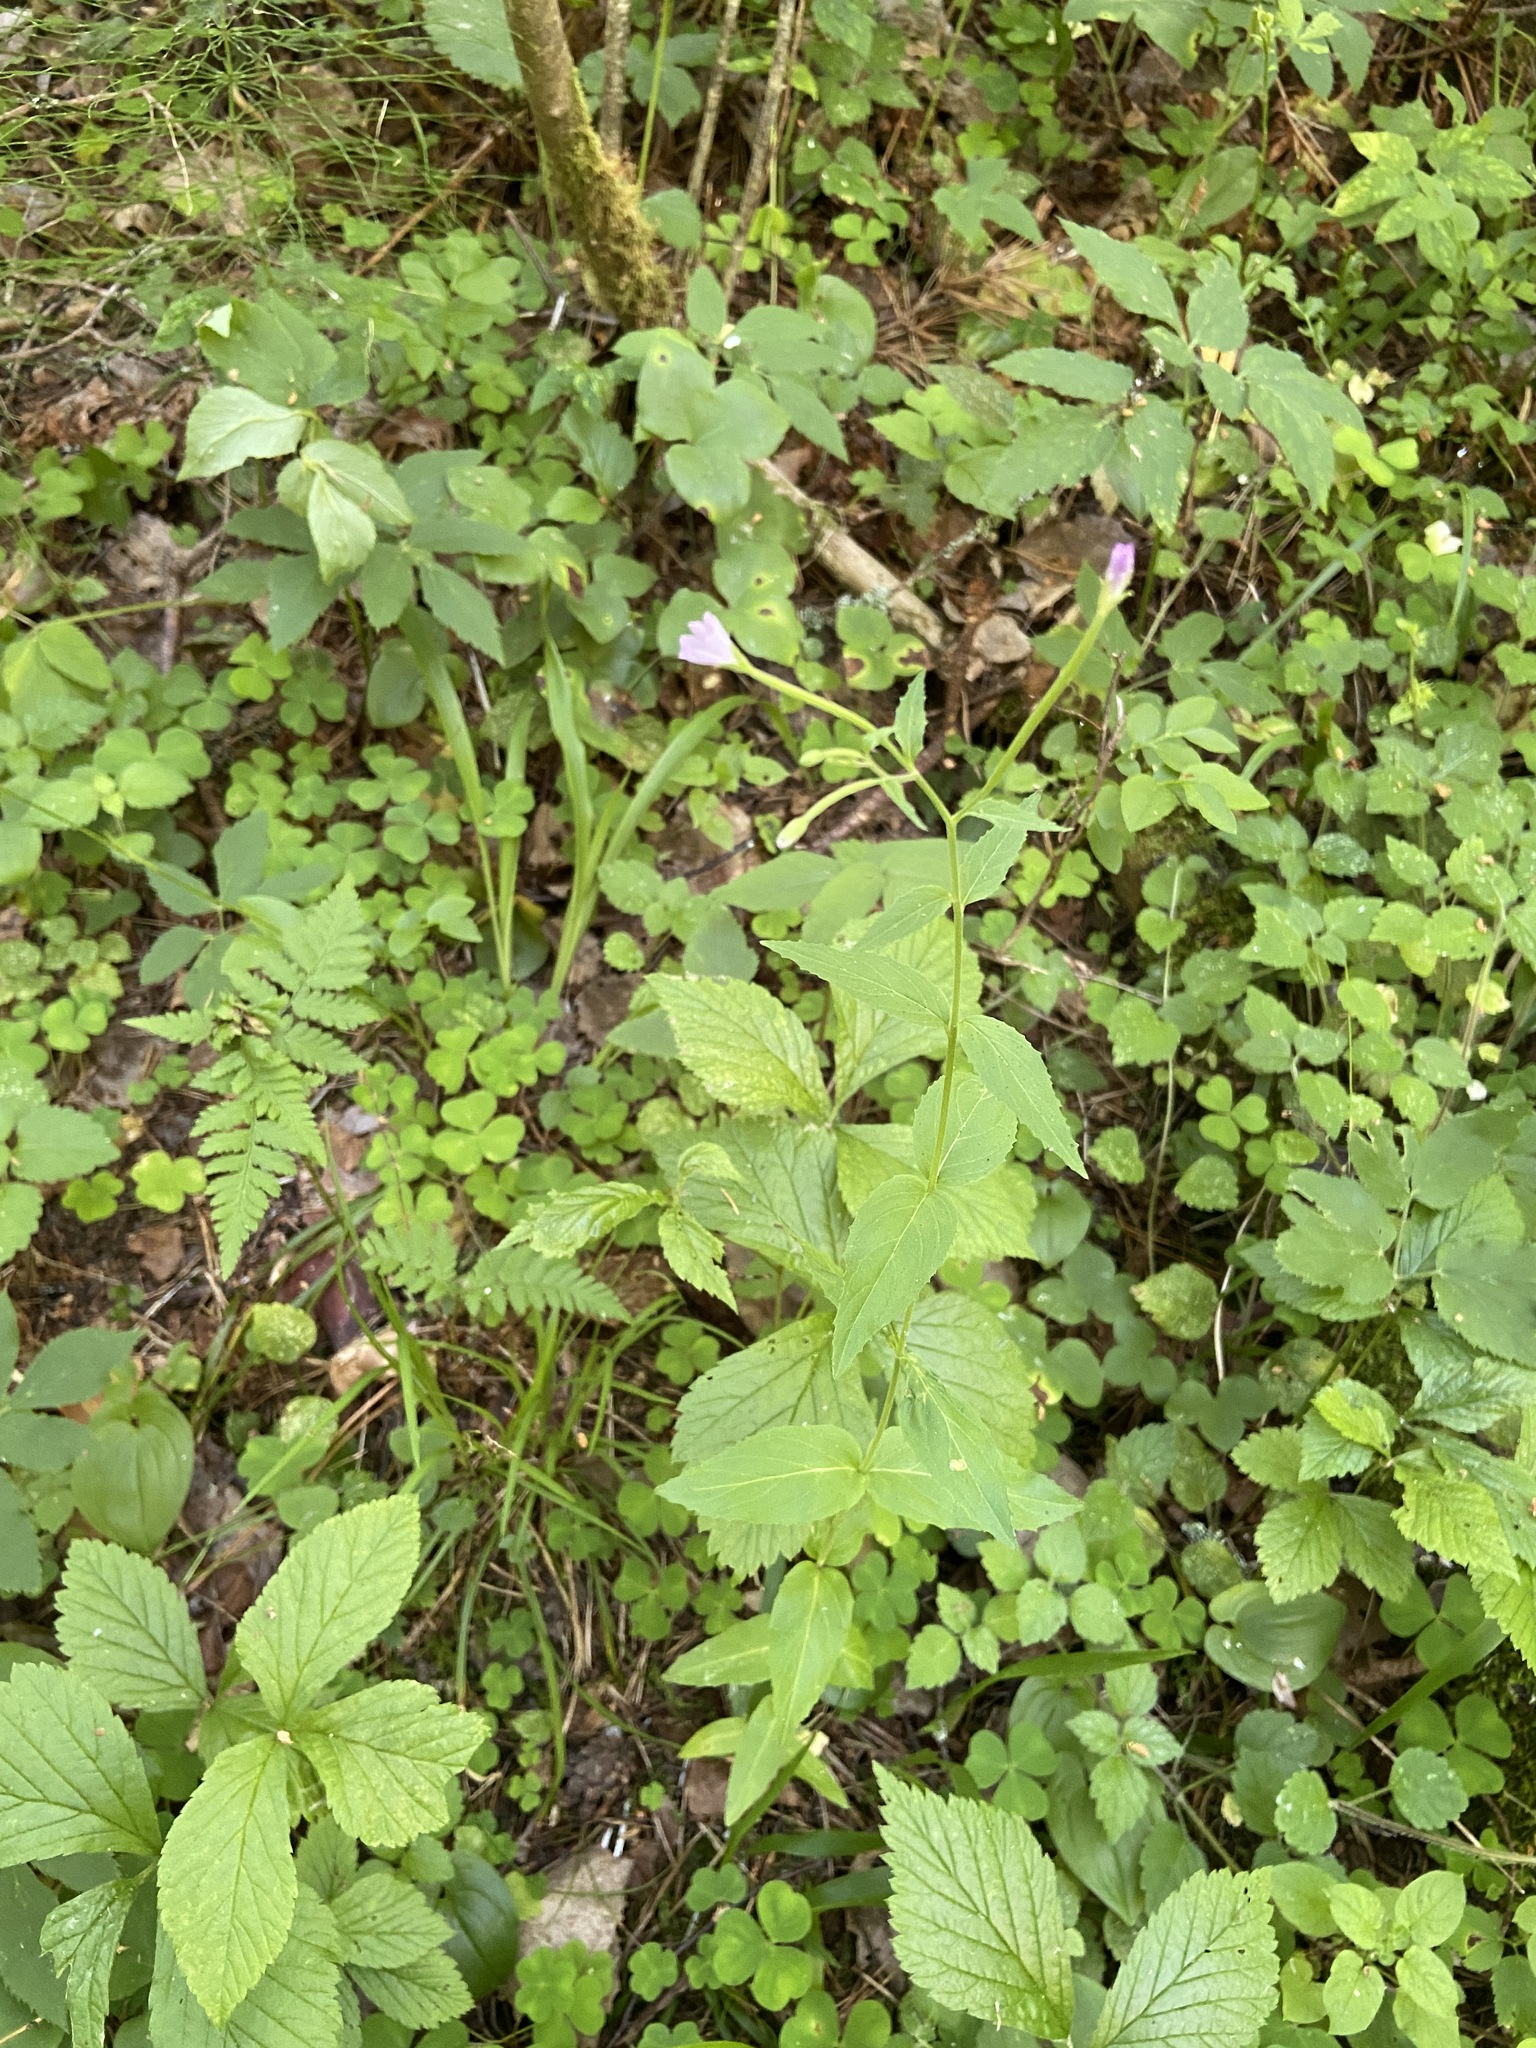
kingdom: Plantae
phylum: Tracheophyta
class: Magnoliopsida
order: Myrtales
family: Onagraceae
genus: Epilobium
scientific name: Epilobium montanum
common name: Broad-leaved willowherb
